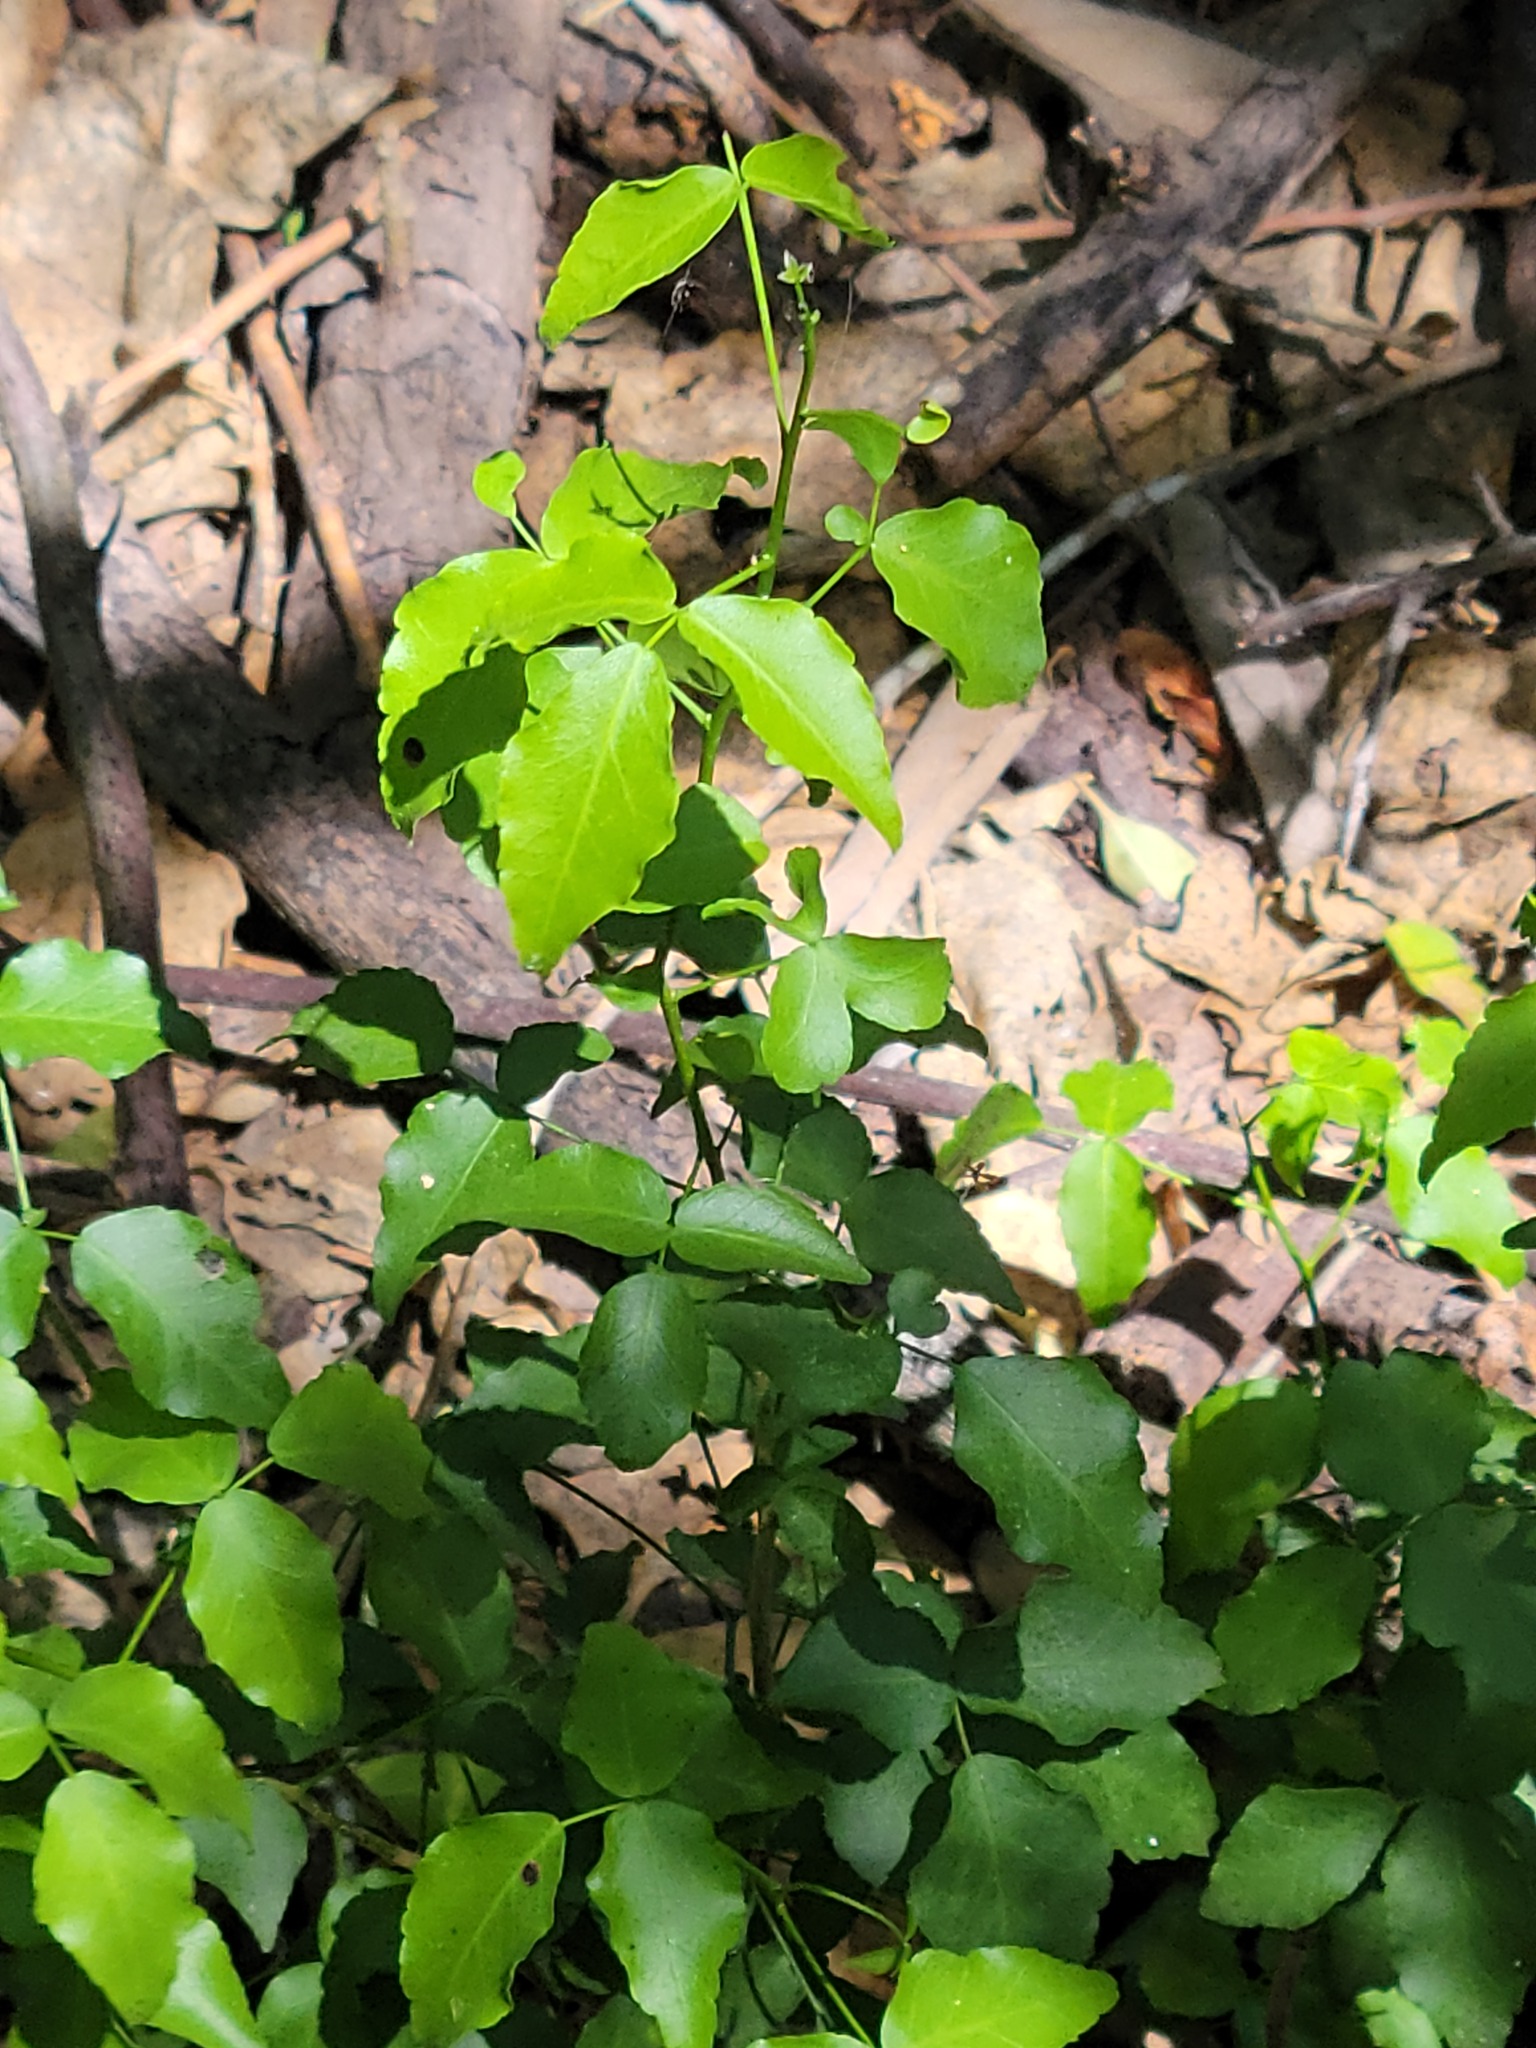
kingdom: Plantae
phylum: Tracheophyta
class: Magnoliopsida
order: Sapindales
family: Rutaceae
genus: Amyris
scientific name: Amyris texana
